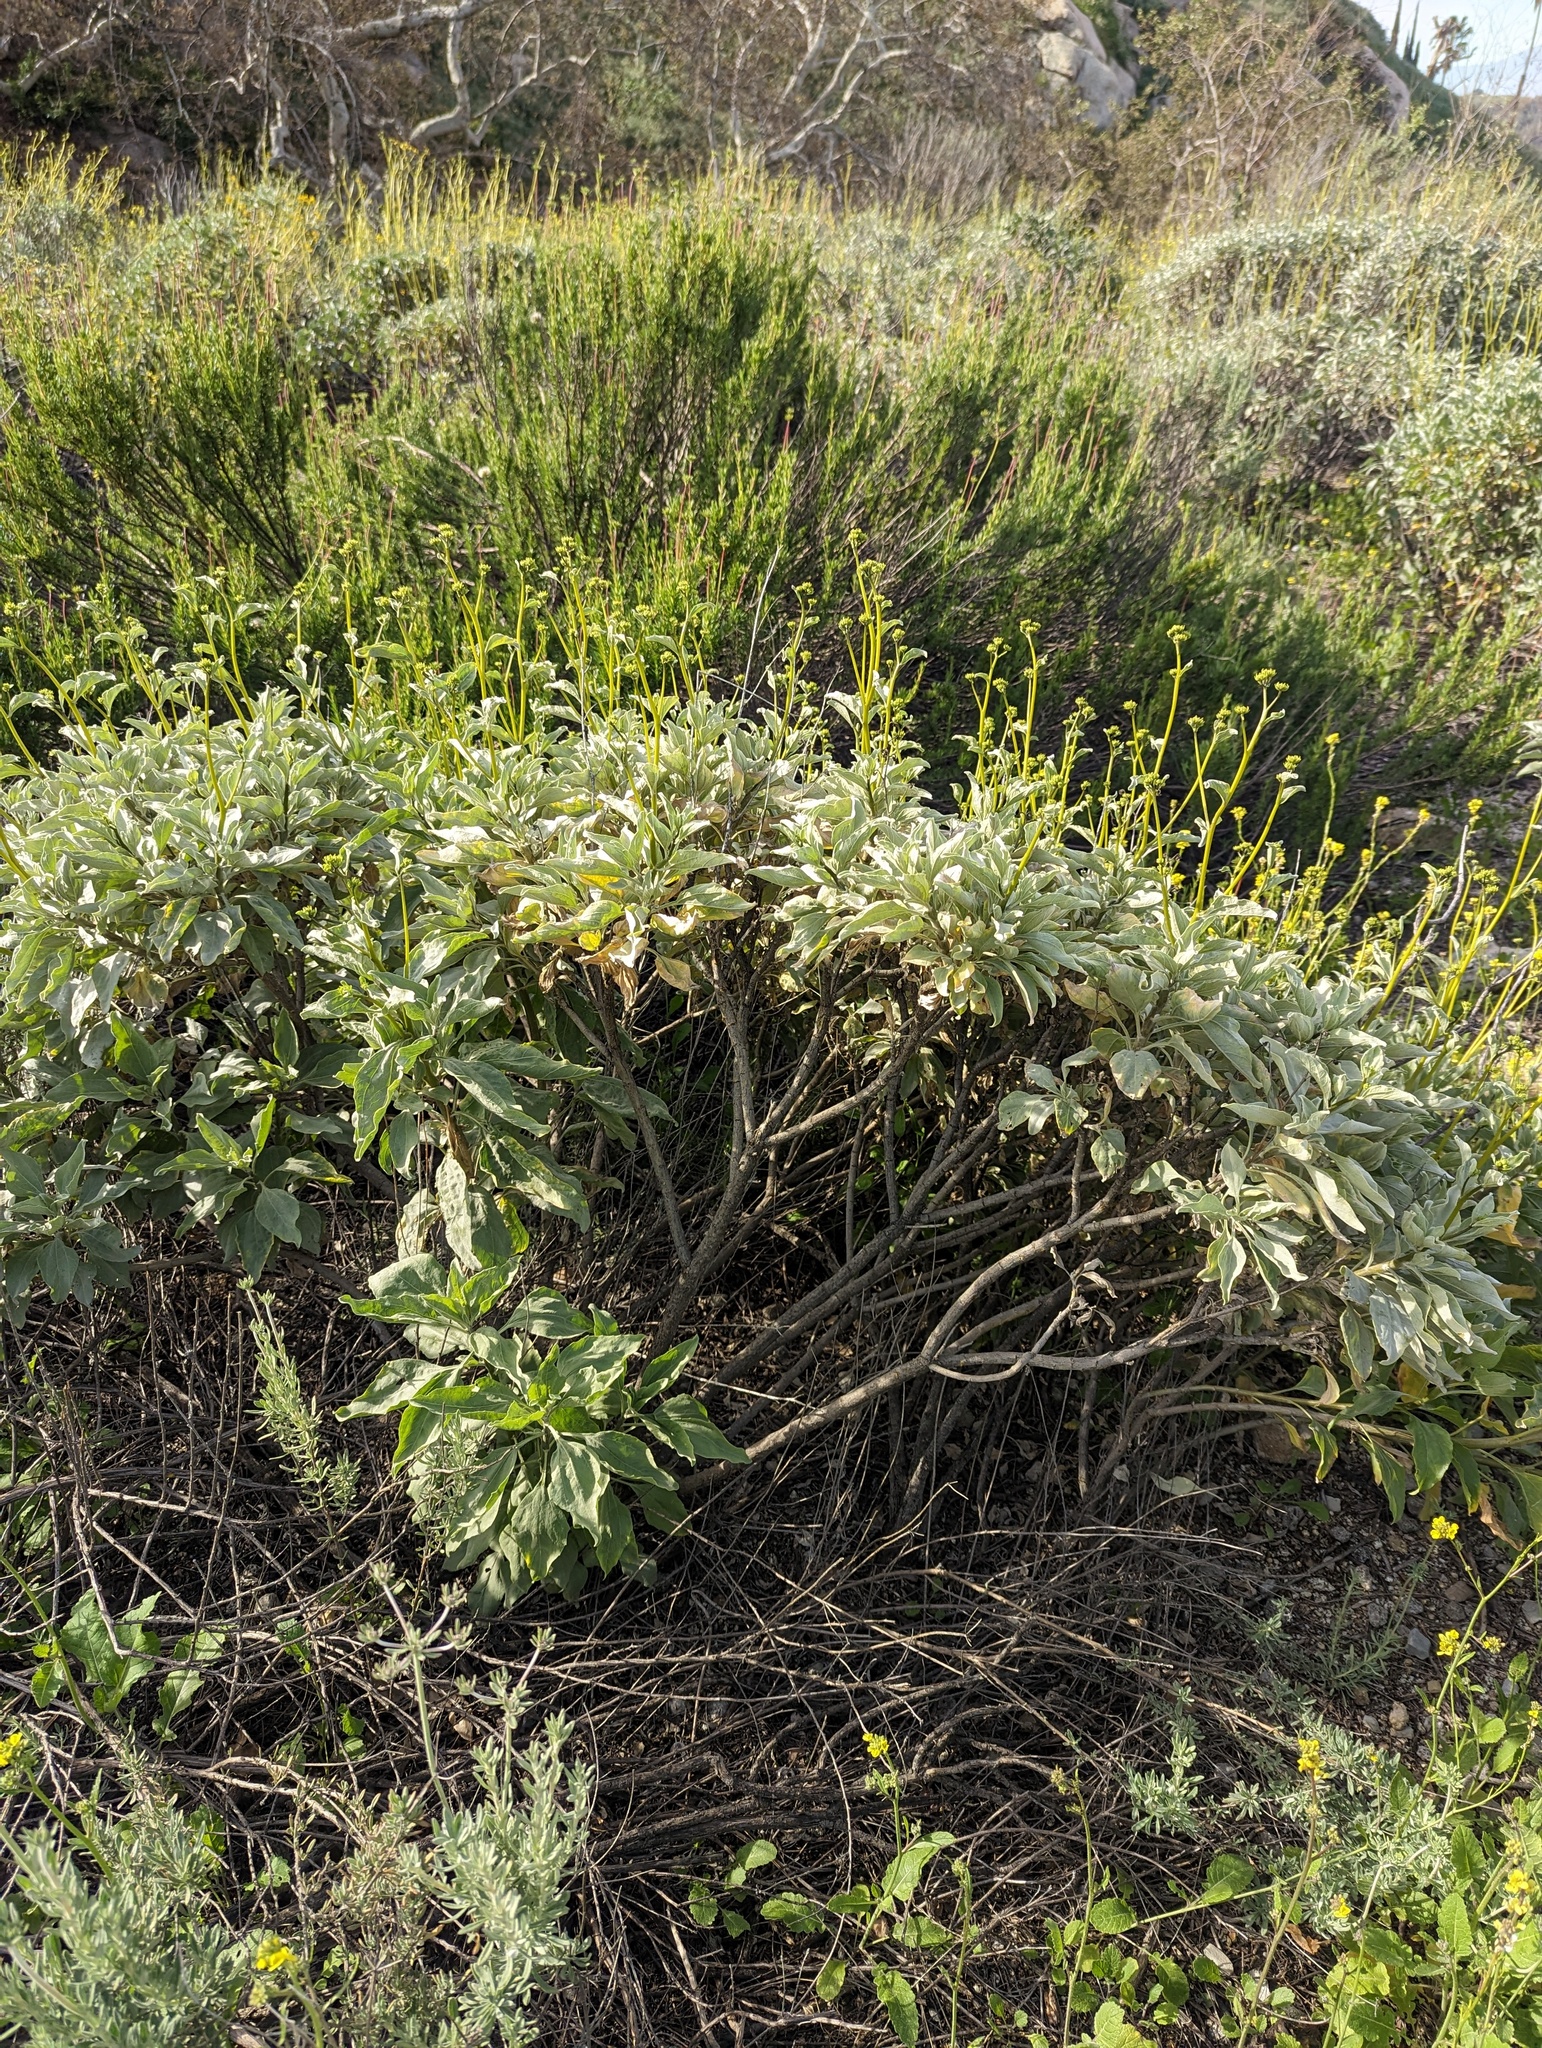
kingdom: Plantae
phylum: Tracheophyta
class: Magnoliopsida
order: Asterales
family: Asteraceae
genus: Encelia
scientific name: Encelia farinosa
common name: Brittlebush
